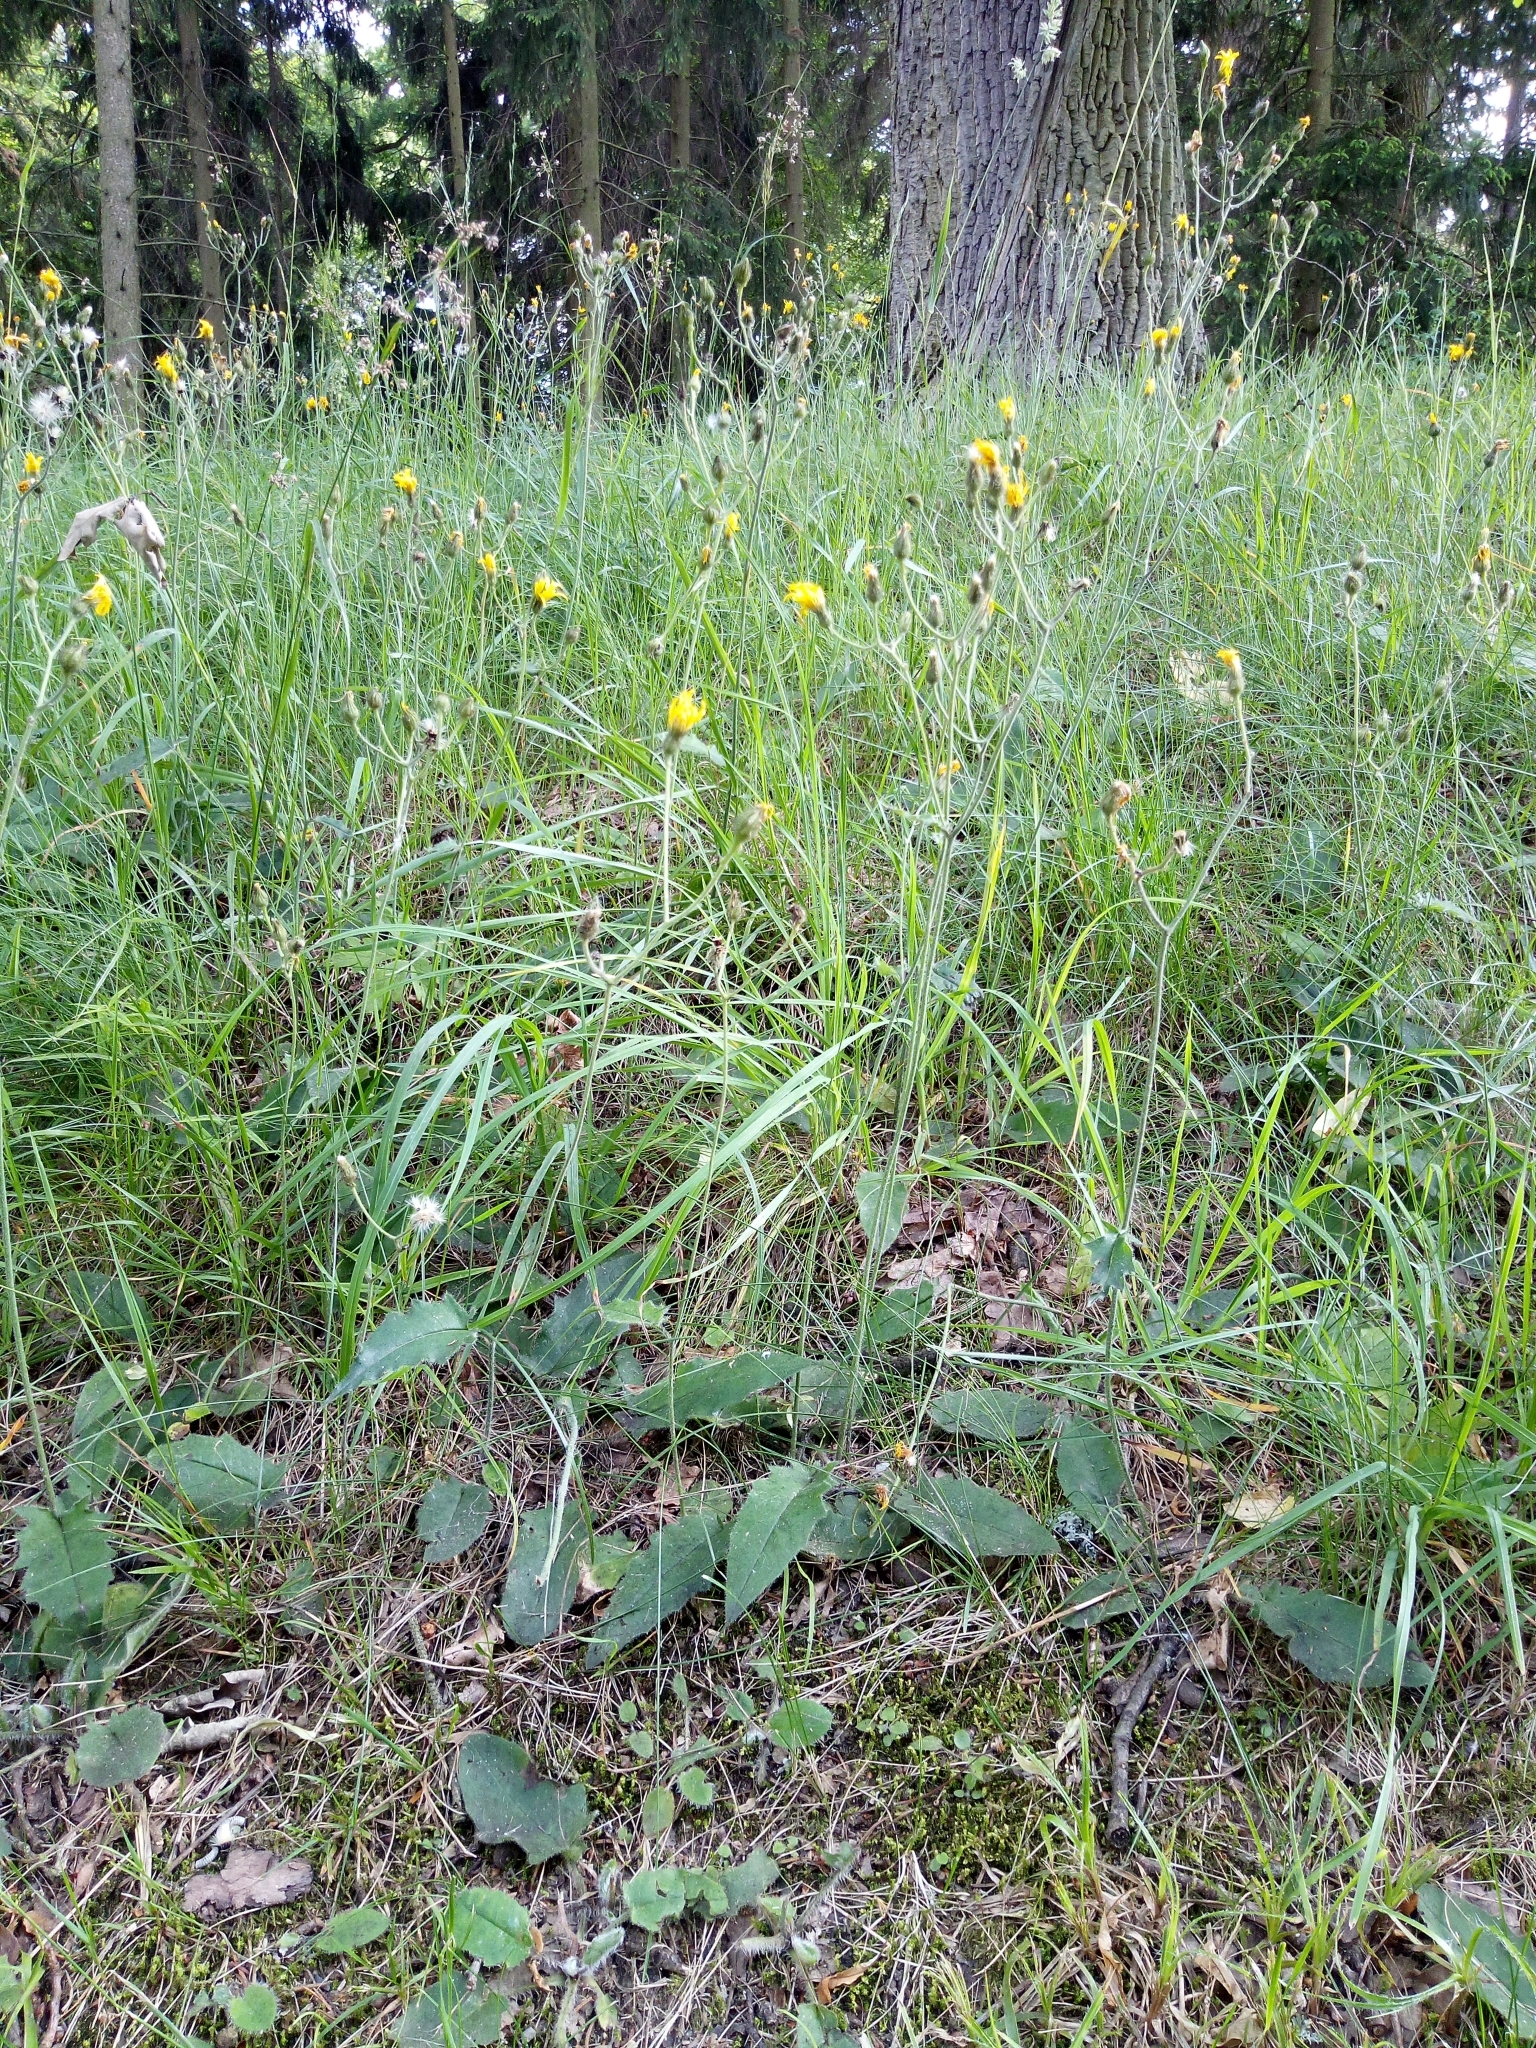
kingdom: Plantae
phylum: Tracheophyta
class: Magnoliopsida
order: Asterales
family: Asteraceae
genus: Hieracium
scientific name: Hieracium murorum
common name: Wall hawkweed
